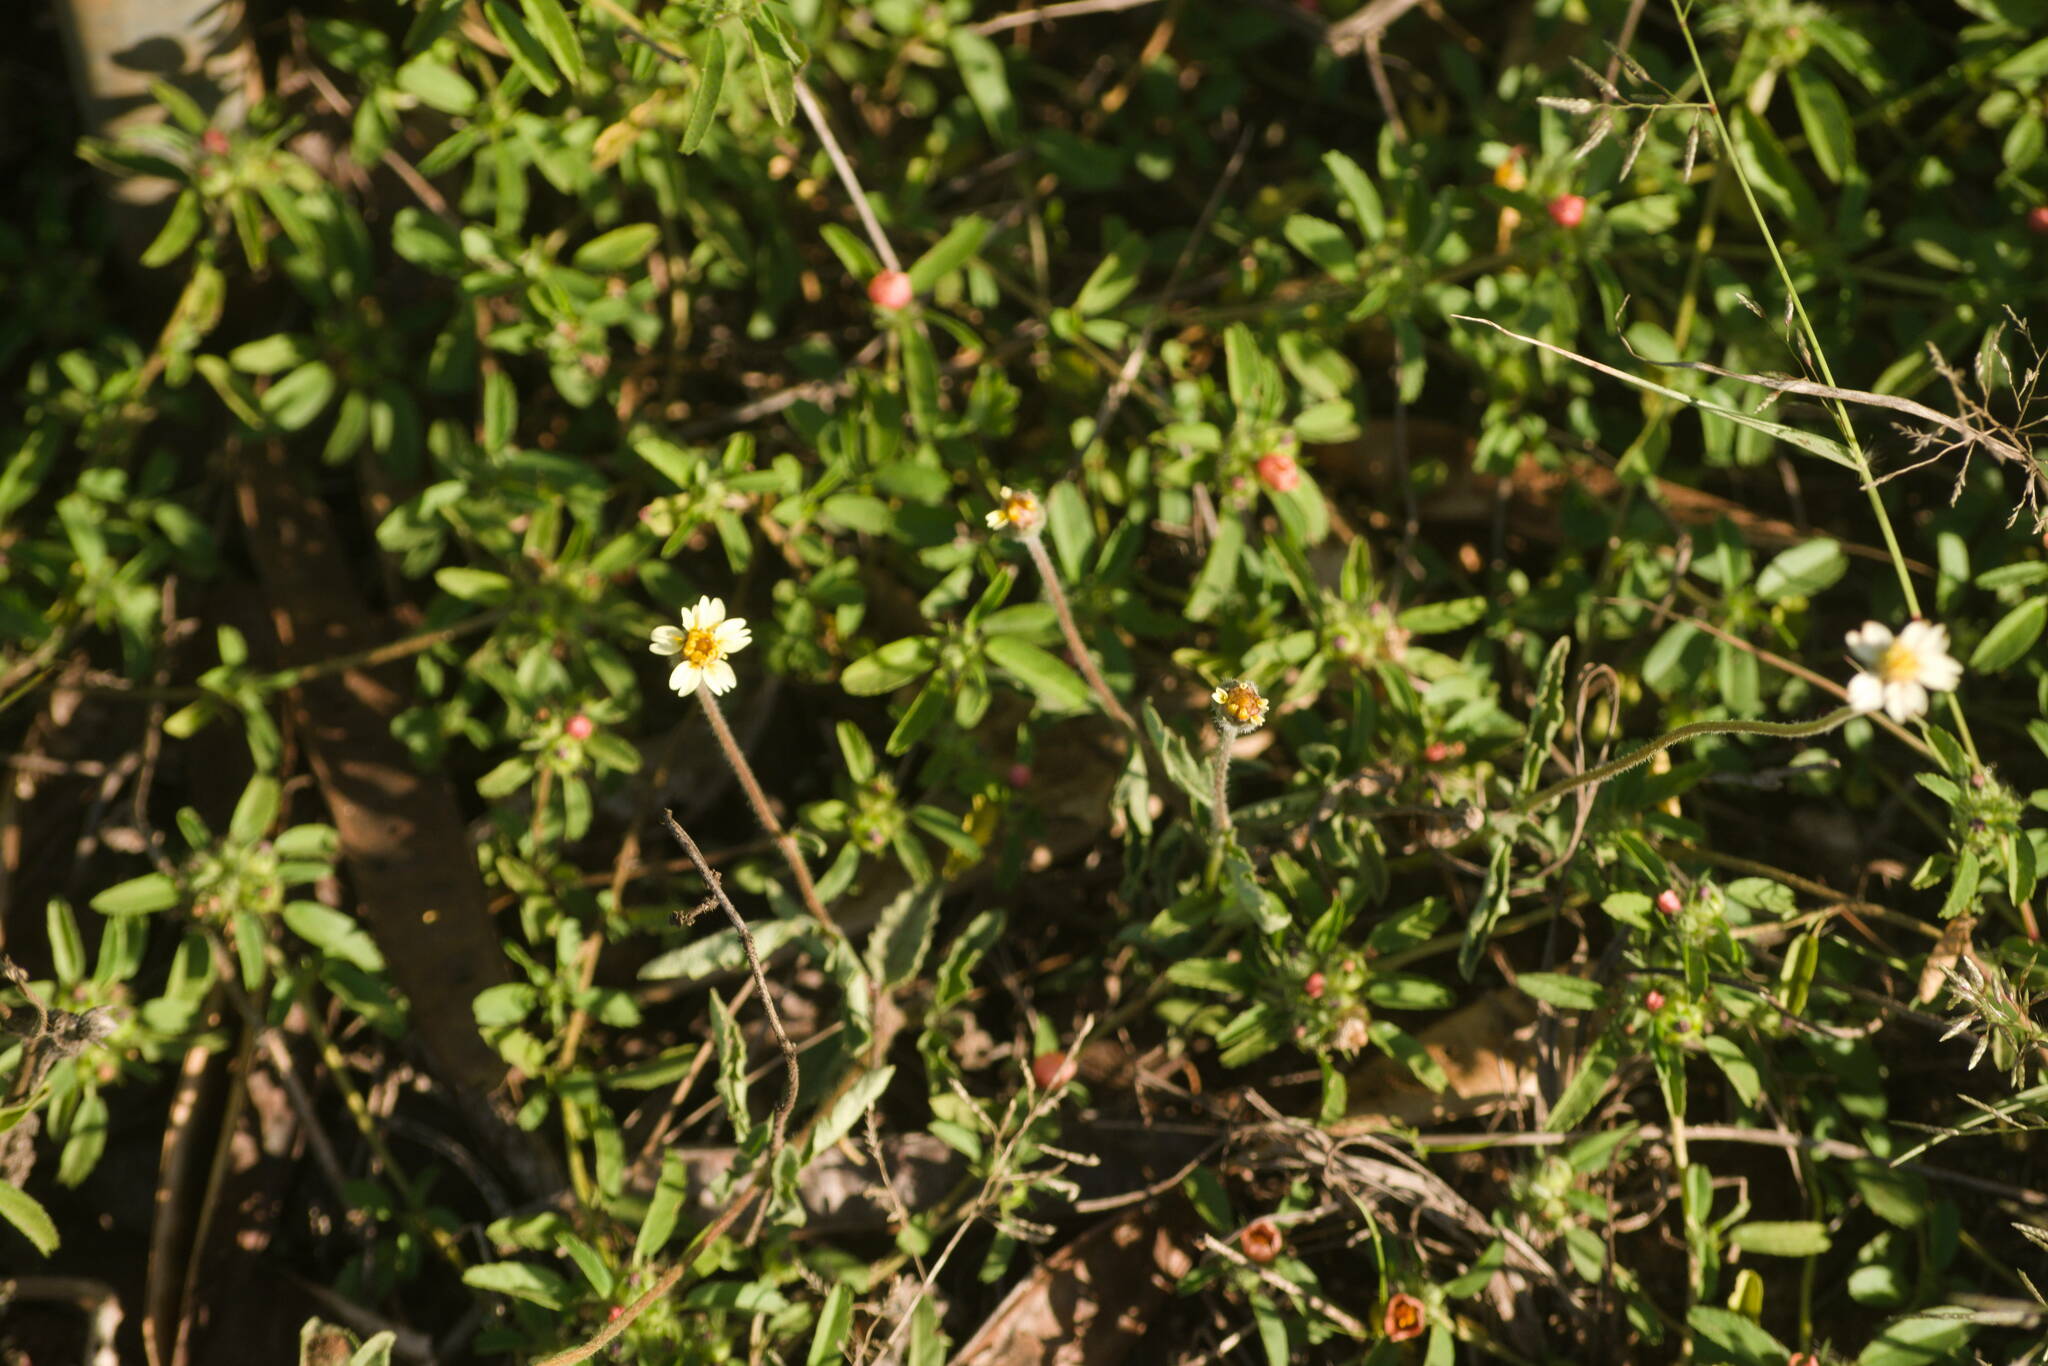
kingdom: Plantae
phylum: Tracheophyta
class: Magnoliopsida
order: Asterales
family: Asteraceae
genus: Tridax
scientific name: Tridax procumbens
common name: Coatbuttons
